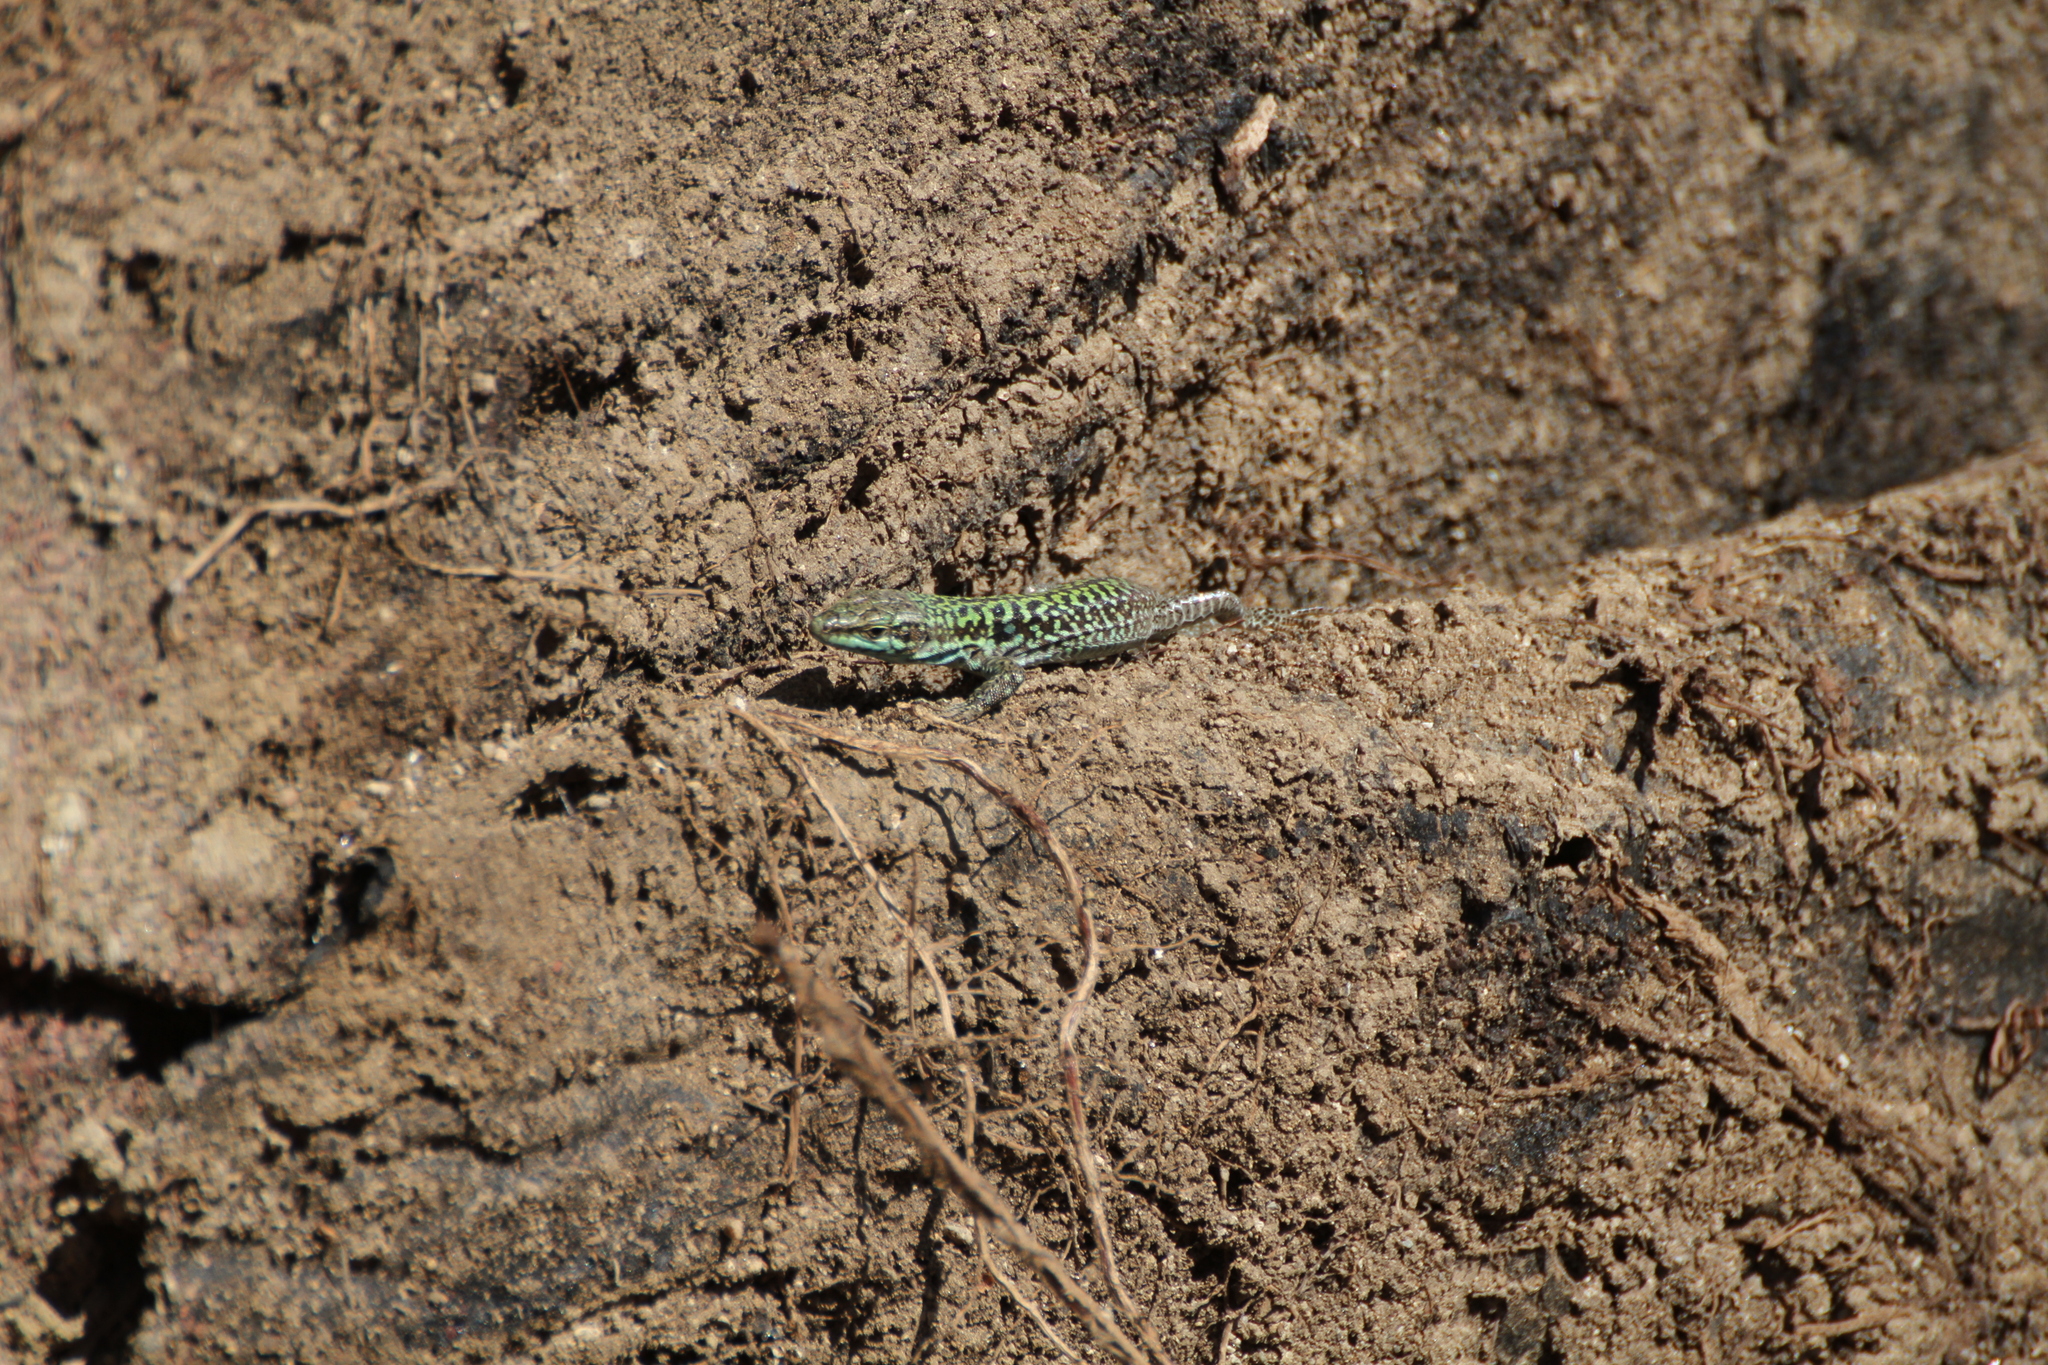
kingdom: Animalia
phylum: Chordata
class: Squamata
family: Lacertidae
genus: Podarcis
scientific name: Podarcis siculus
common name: Italian wall lizard
